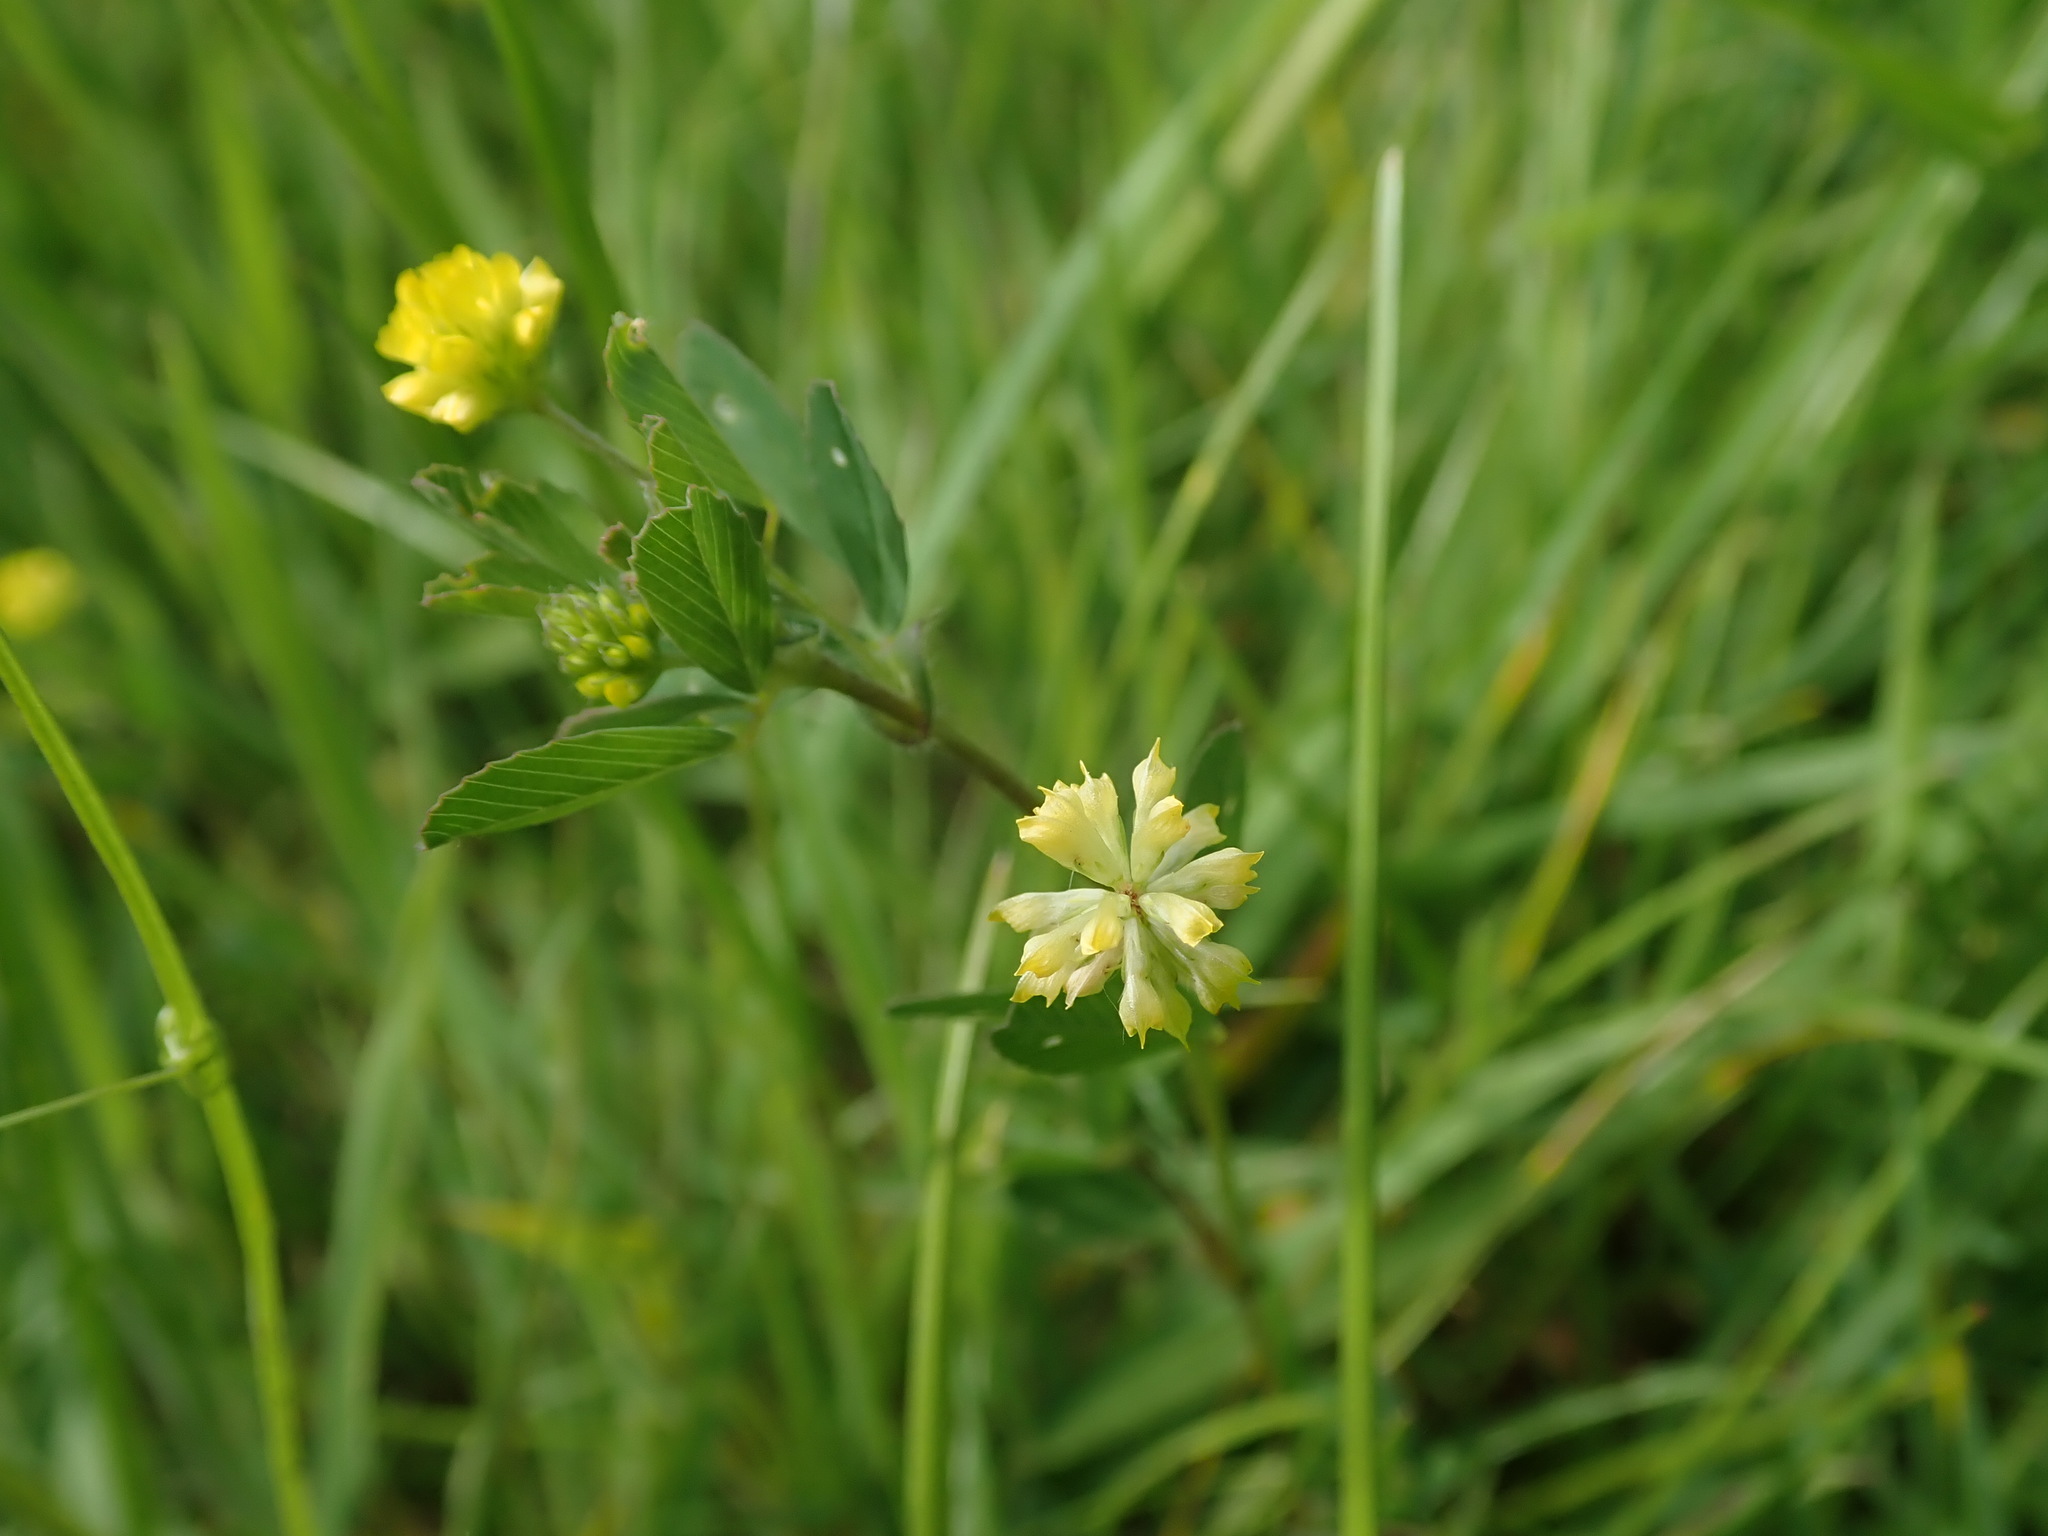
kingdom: Plantae
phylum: Tracheophyta
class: Magnoliopsida
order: Fabales
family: Fabaceae
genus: Trifolium
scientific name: Trifolium dubium
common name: Suckling clover
